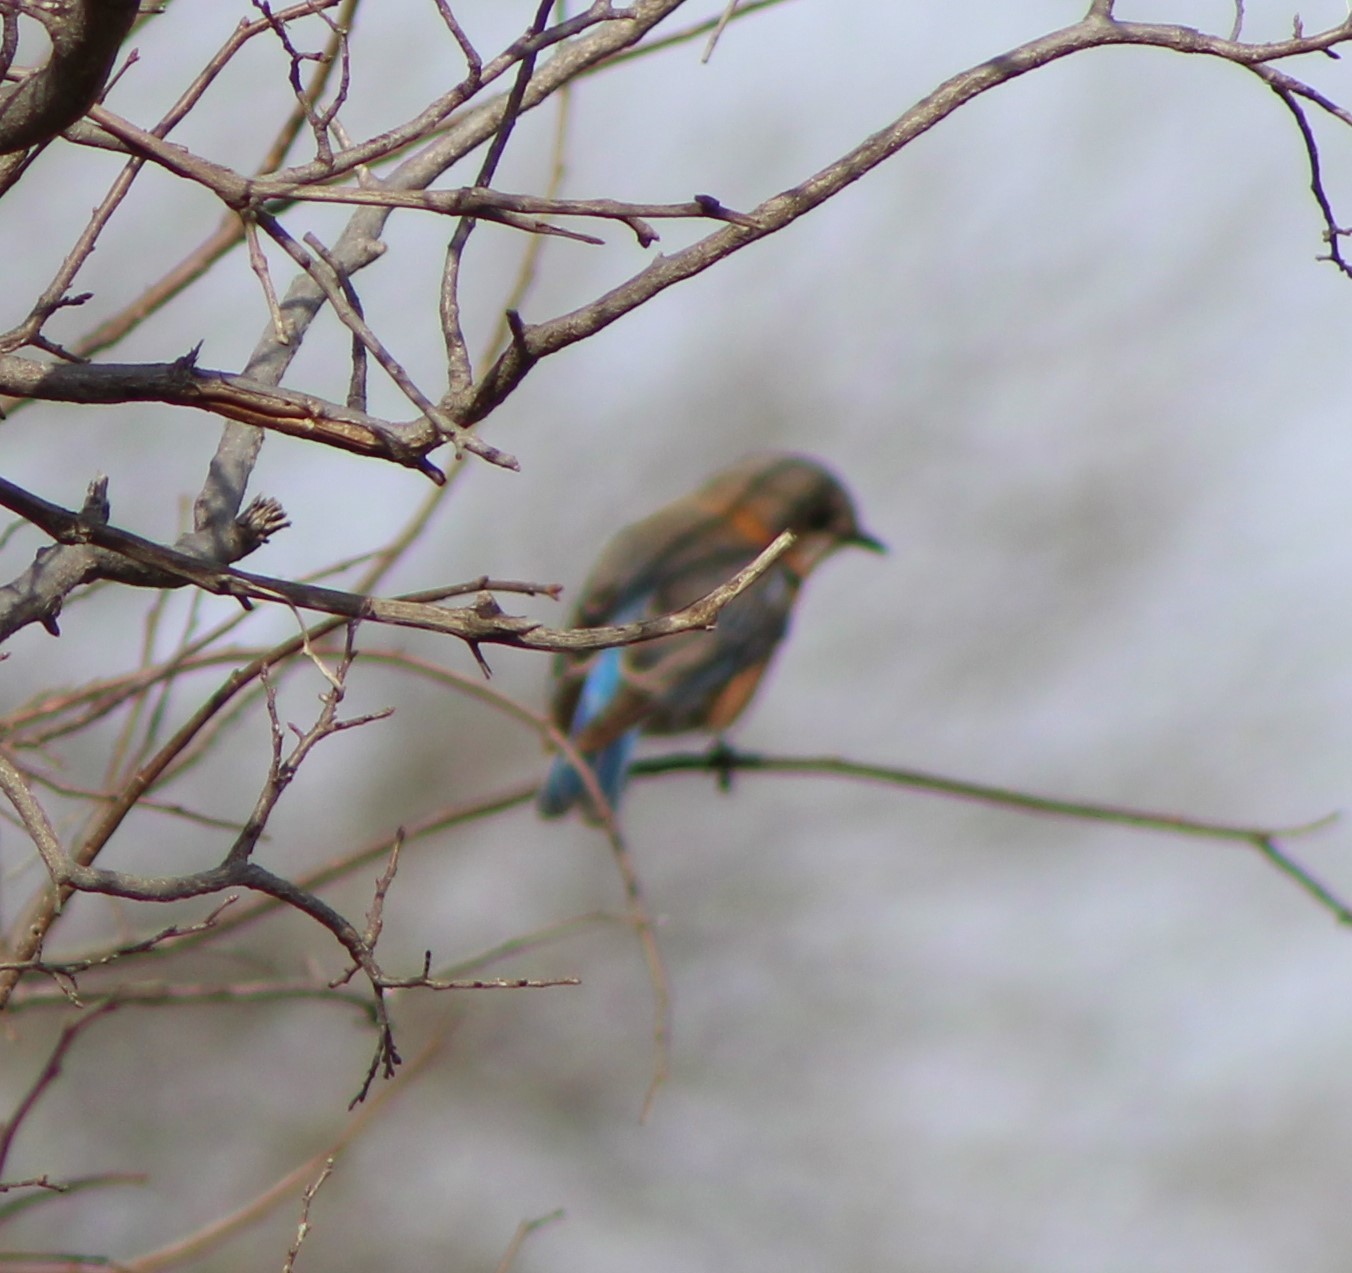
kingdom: Animalia
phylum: Chordata
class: Aves
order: Passeriformes
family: Turdidae
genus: Sialia
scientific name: Sialia sialis
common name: Eastern bluebird
